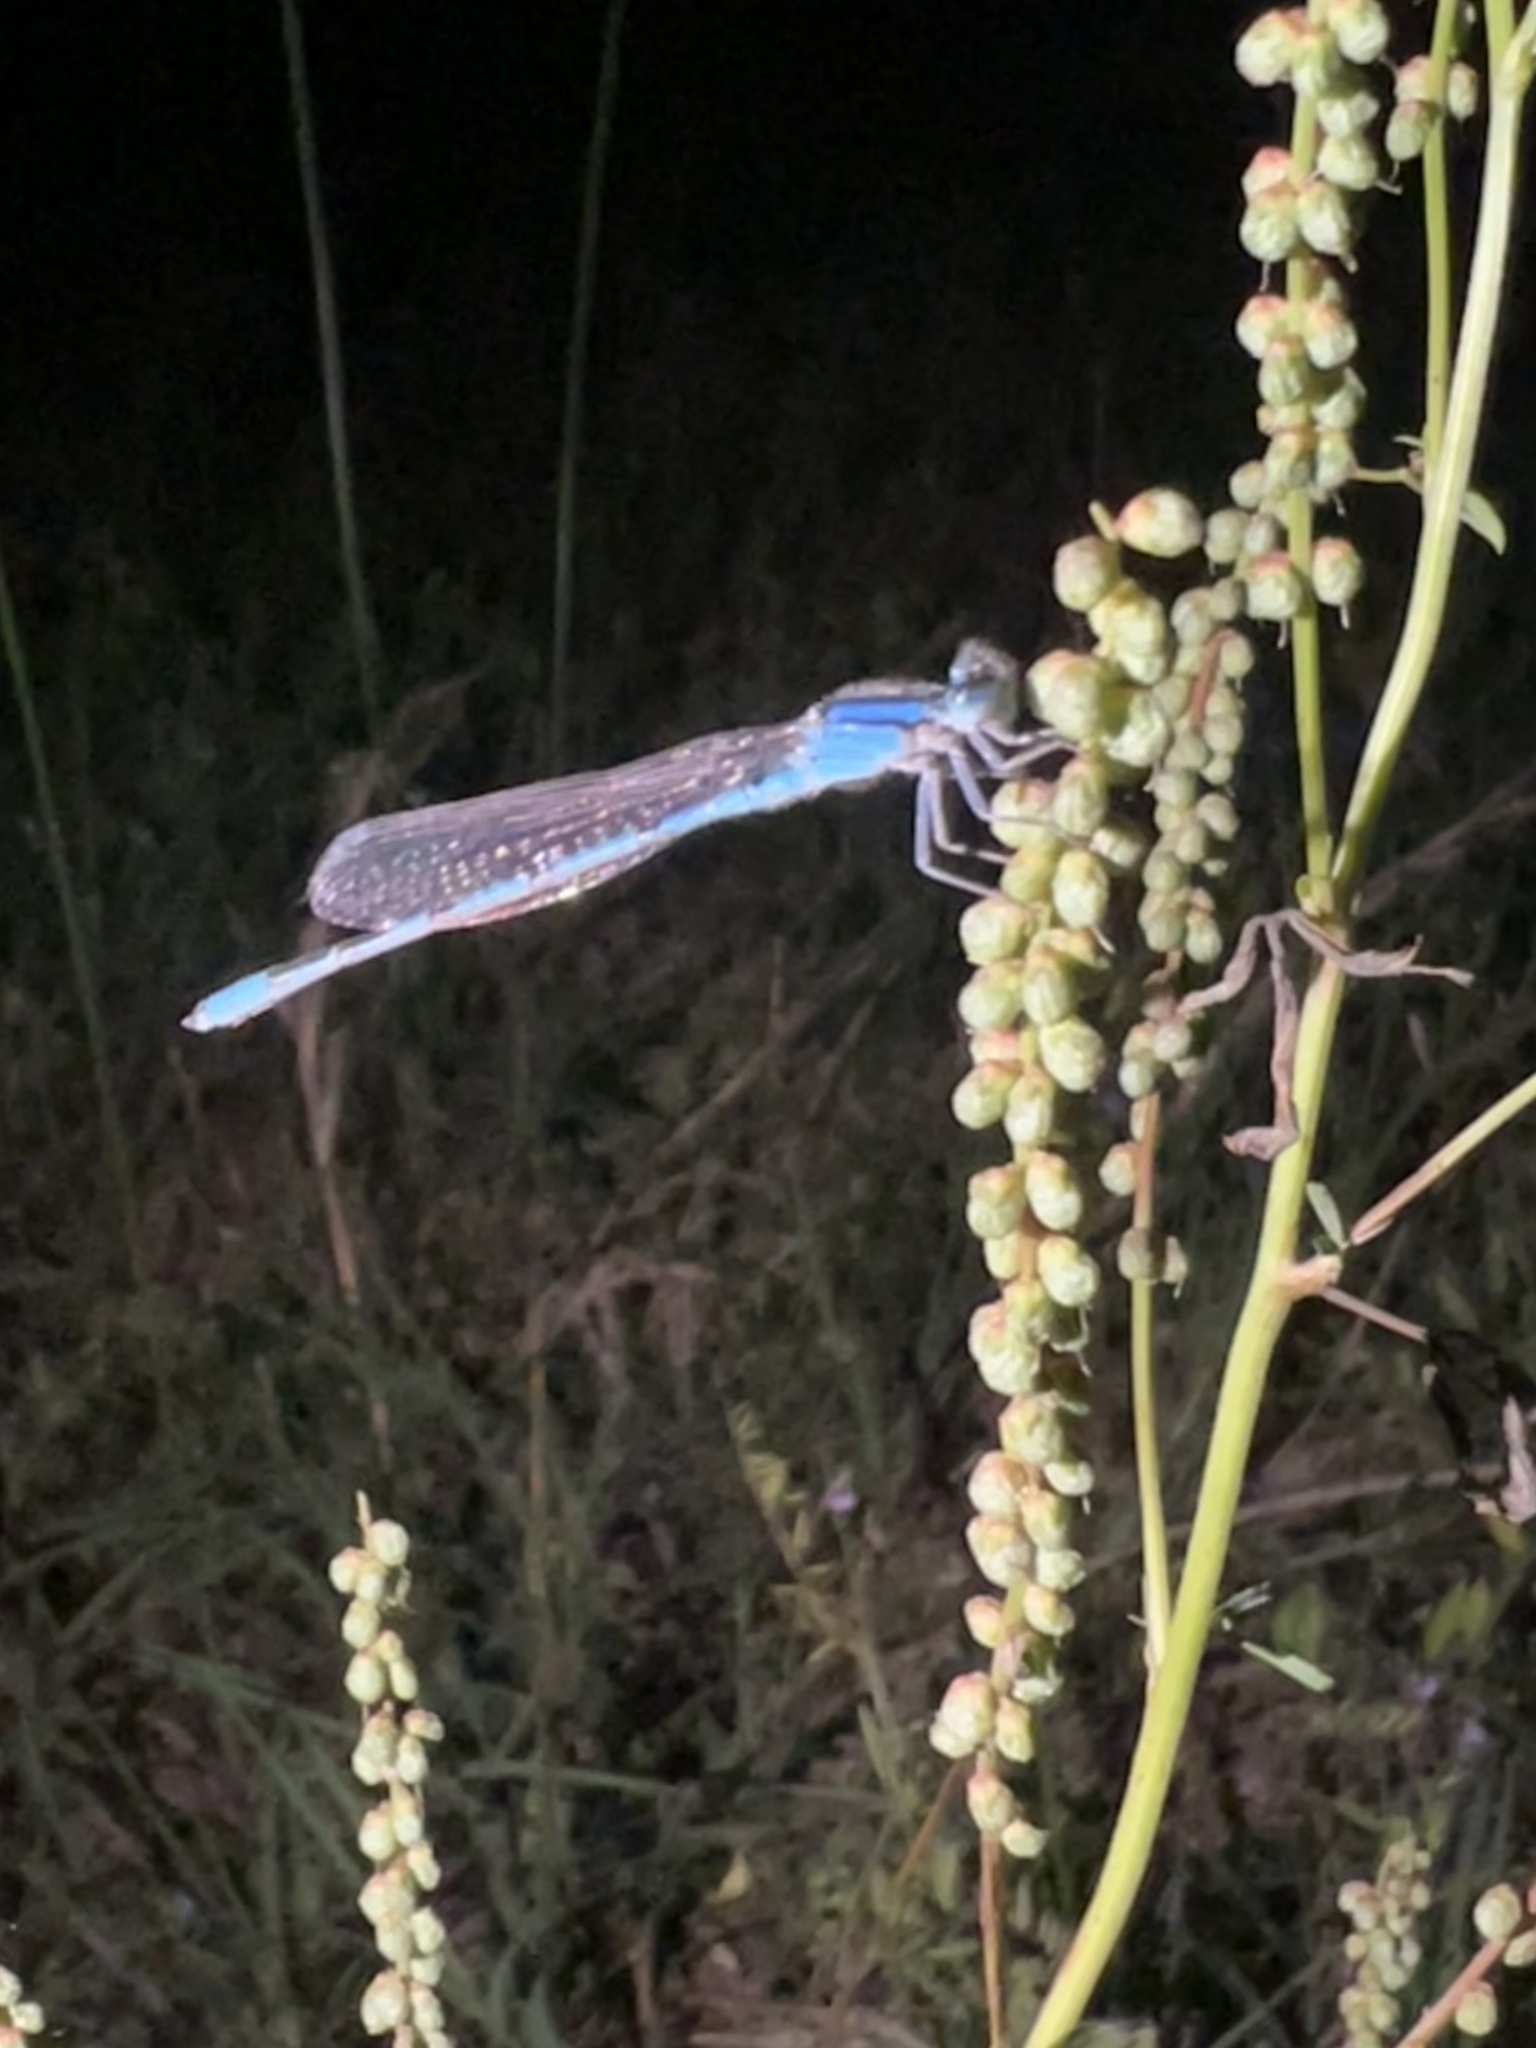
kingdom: Animalia
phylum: Arthropoda
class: Insecta
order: Odonata
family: Coenagrionidae
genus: Enallagma
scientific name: Enallagma civile
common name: Damselfly
